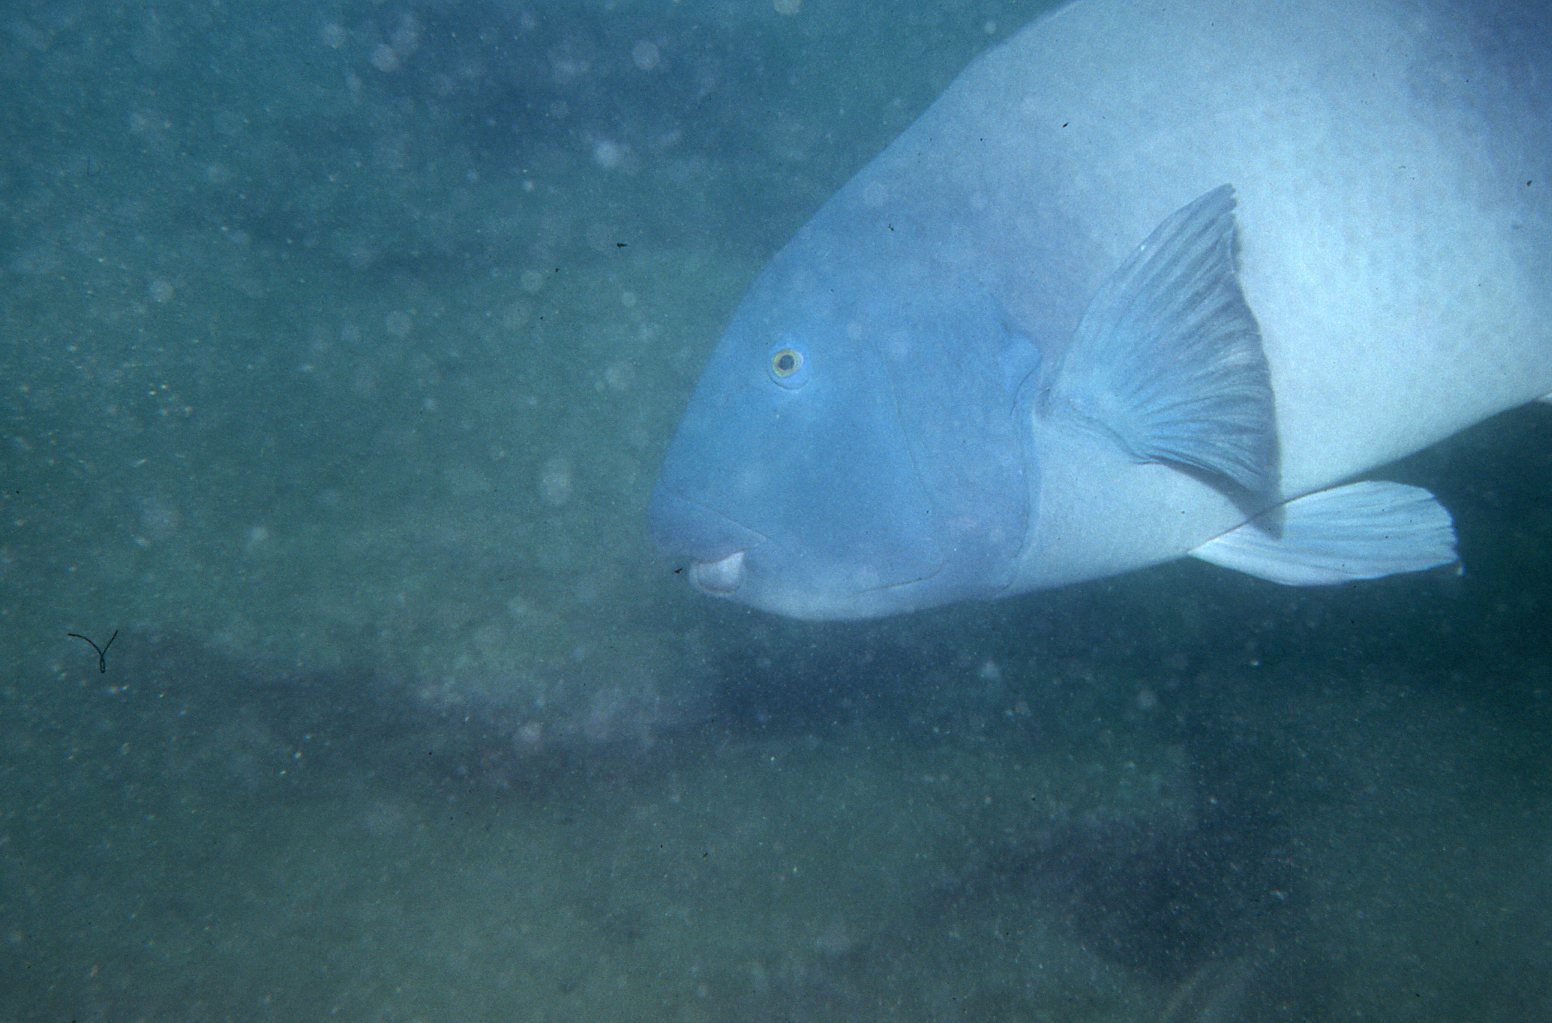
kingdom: Animalia
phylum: Chordata
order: Perciformes
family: Labridae
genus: Achoerodus
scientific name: Achoerodus viridis
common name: Brown groper
